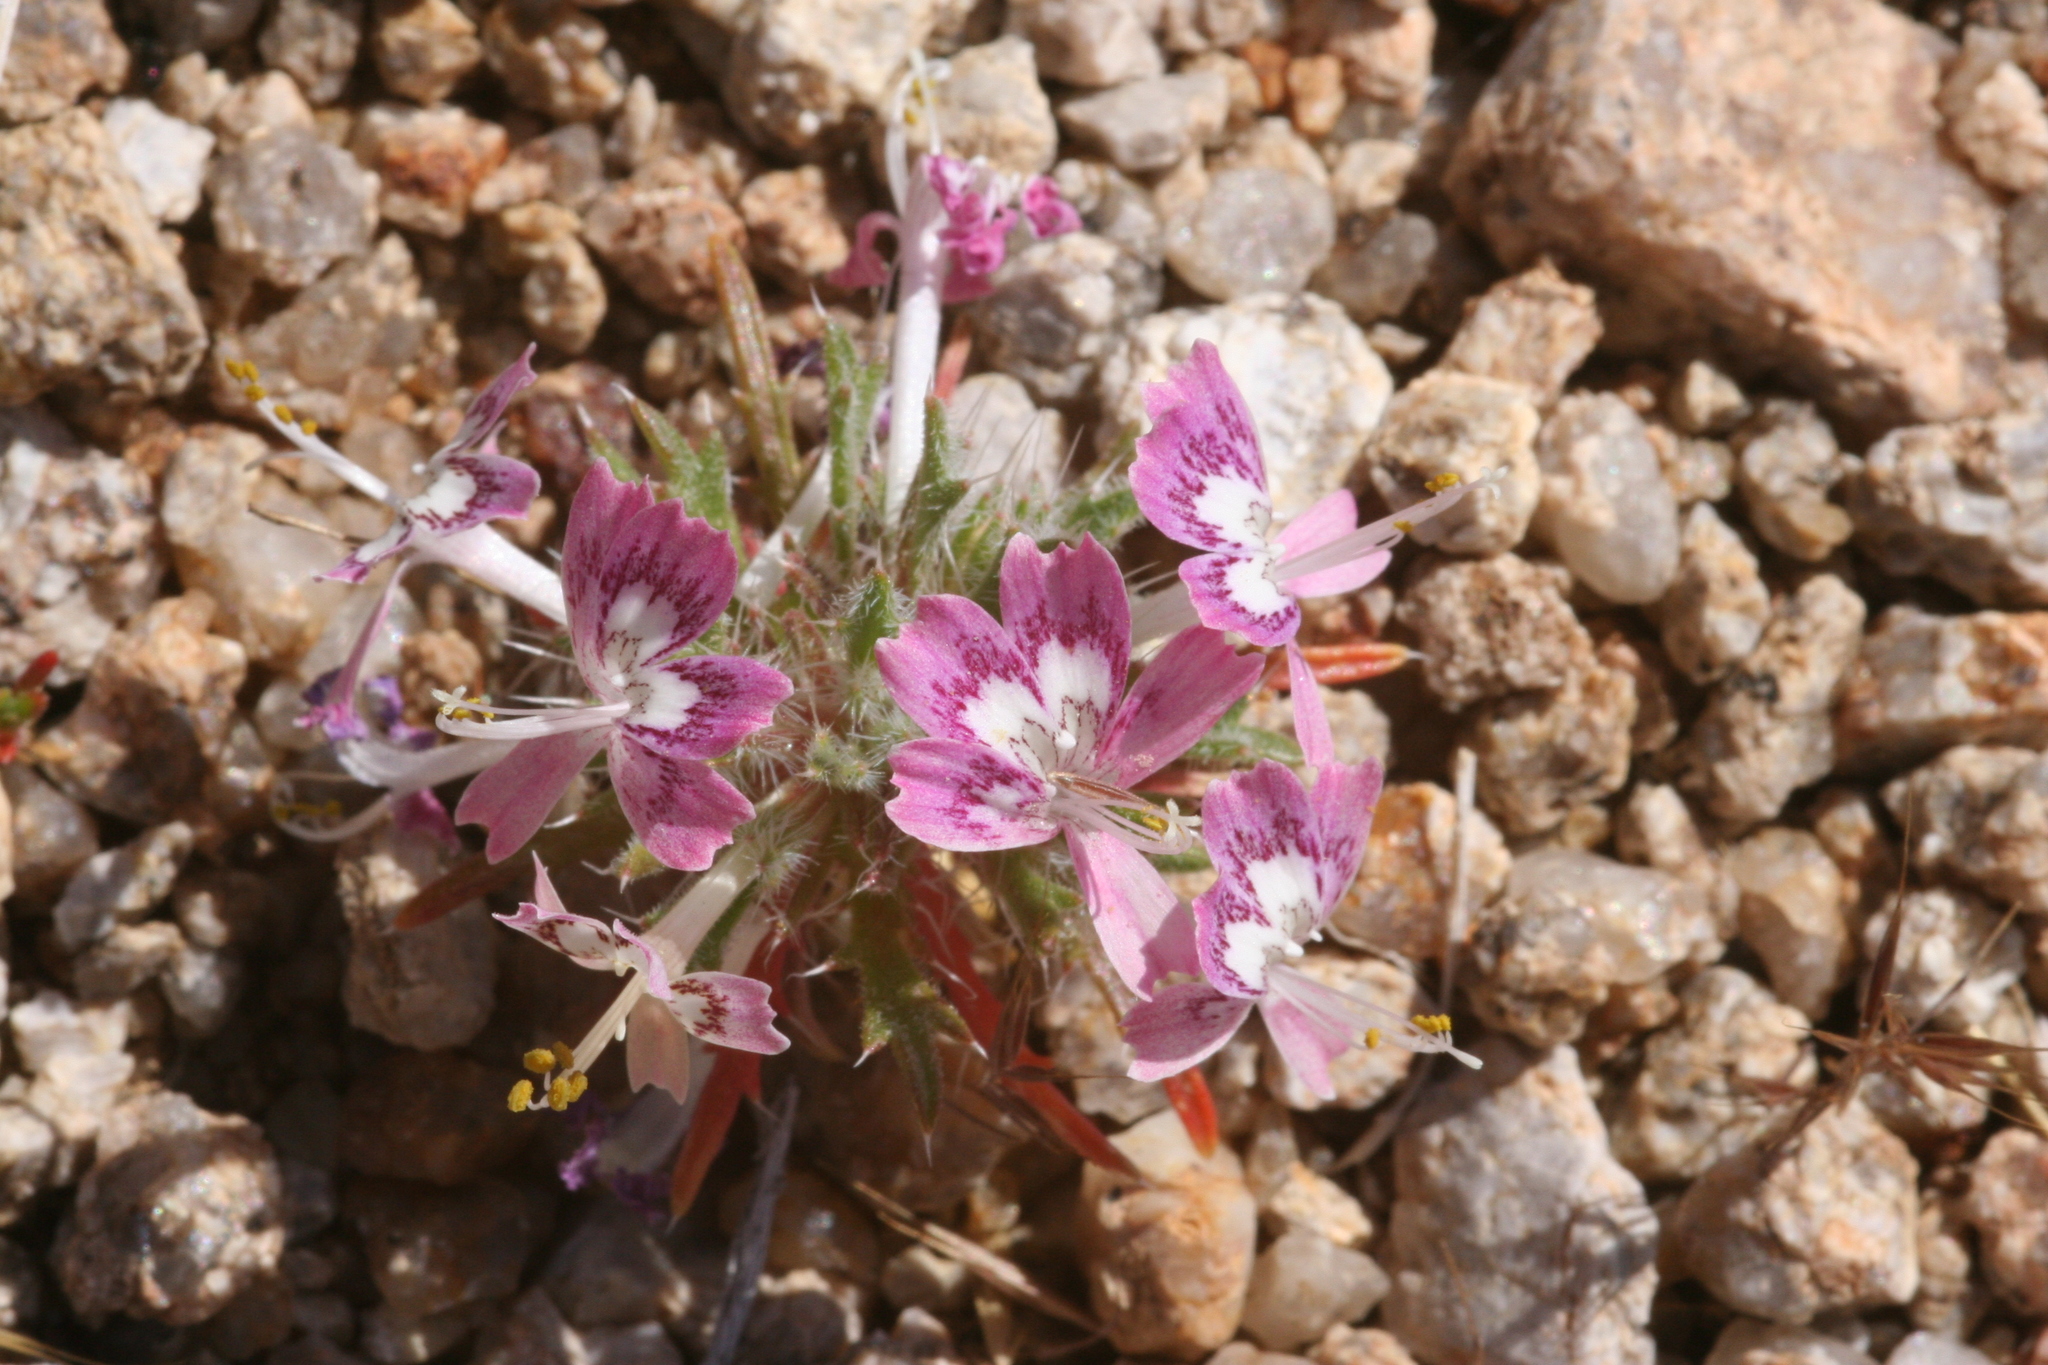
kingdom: Plantae
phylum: Tracheophyta
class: Magnoliopsida
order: Ericales
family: Polemoniaceae
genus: Loeseliastrum
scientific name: Loeseliastrum matthewsii
